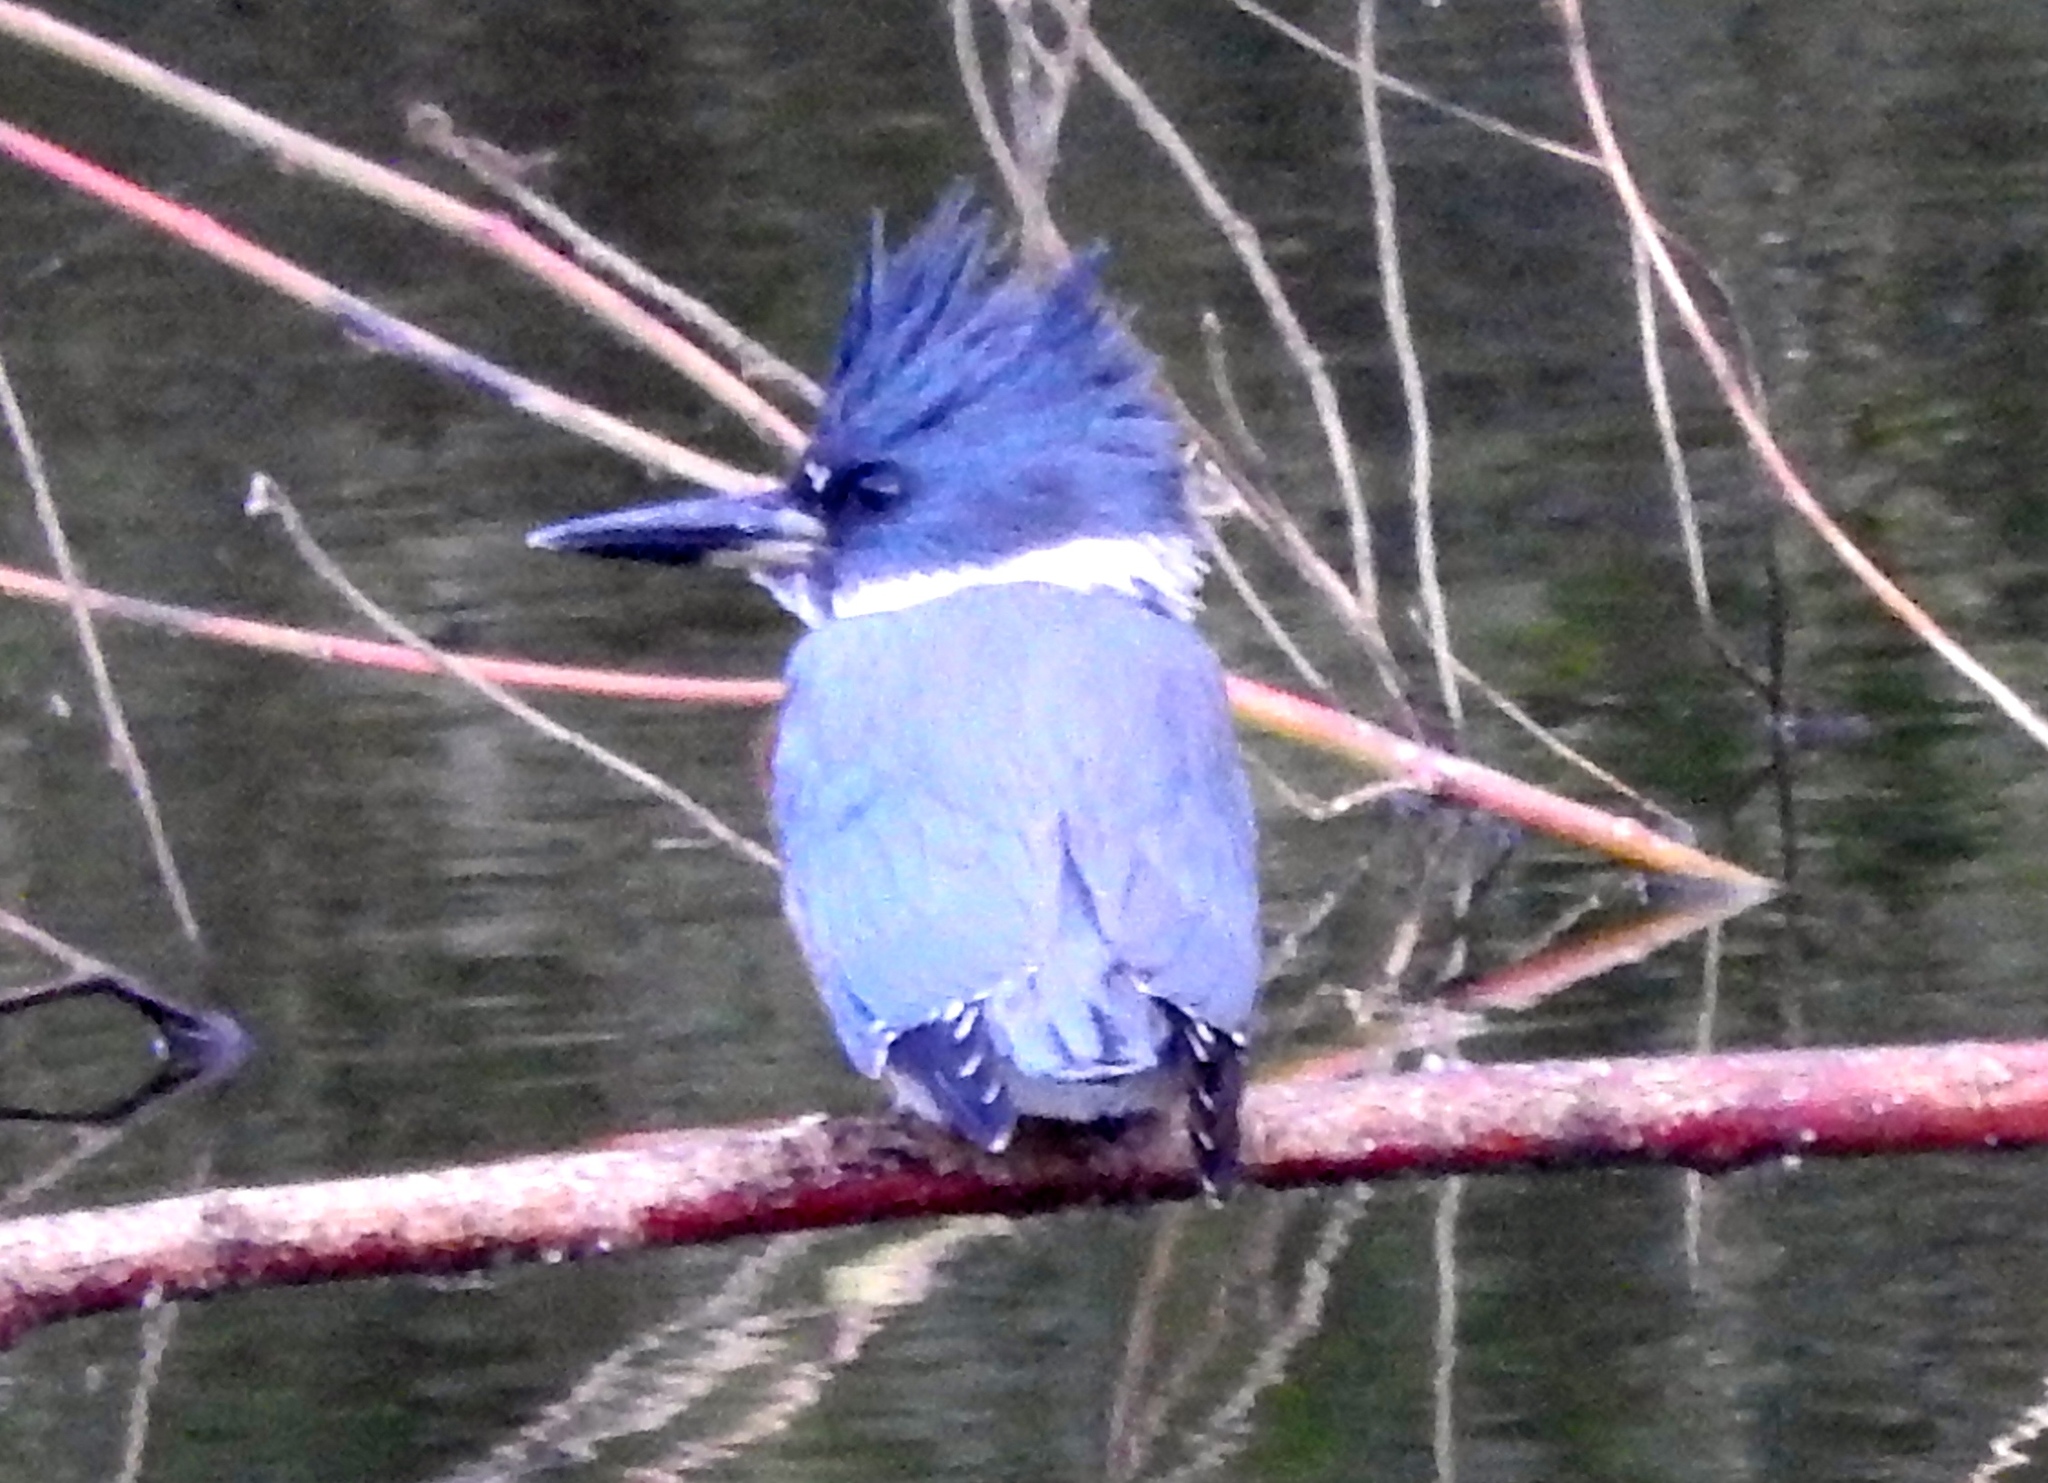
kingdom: Animalia
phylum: Chordata
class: Aves
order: Coraciiformes
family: Alcedinidae
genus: Megaceryle
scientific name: Megaceryle alcyon
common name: Belted kingfisher
